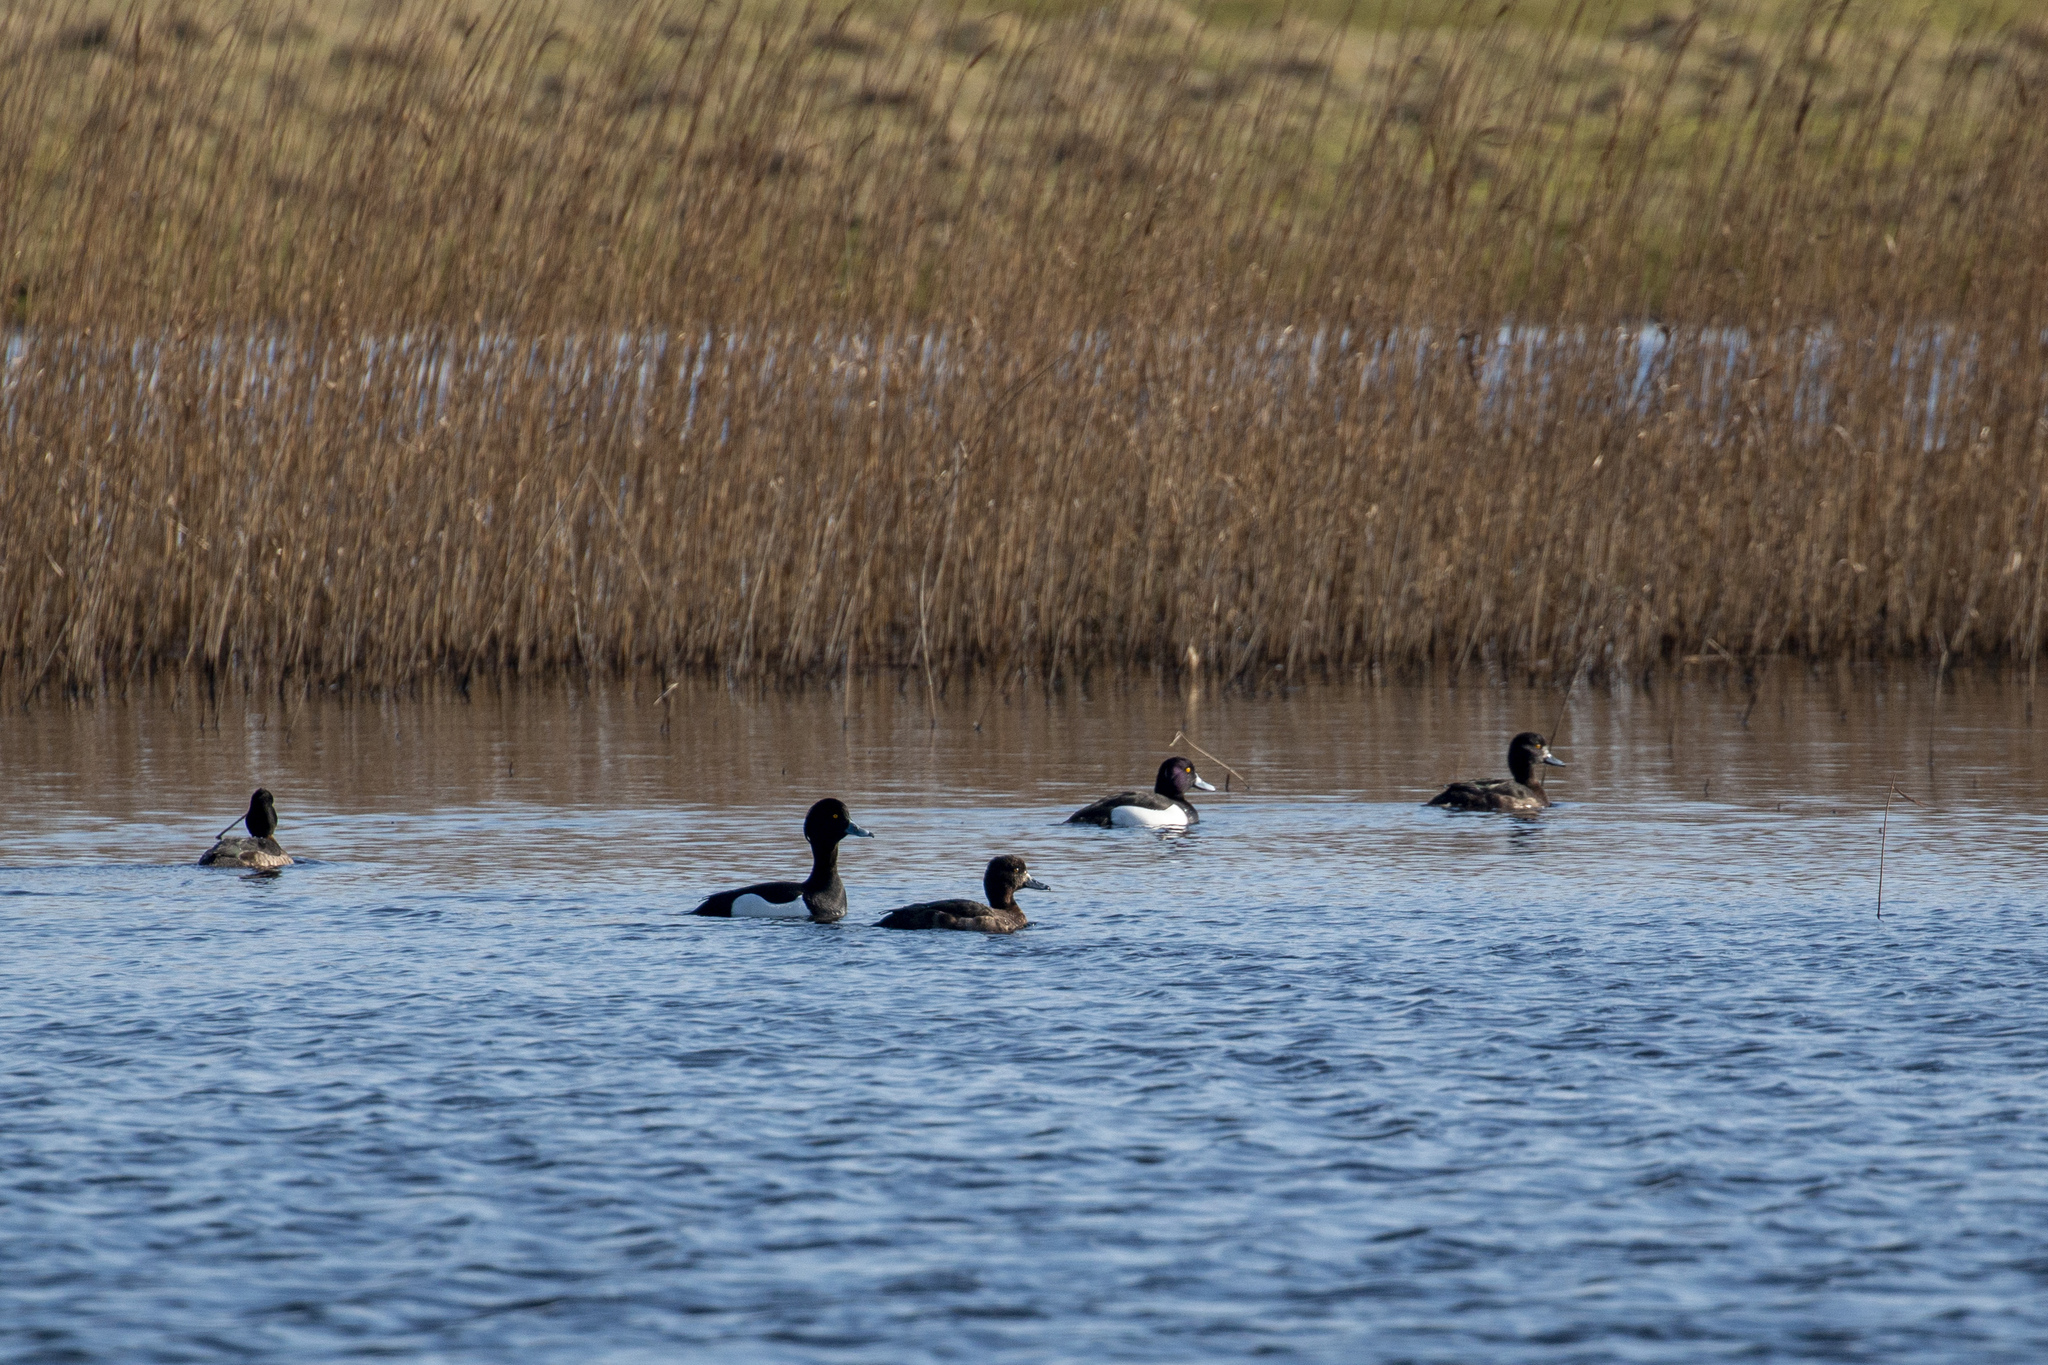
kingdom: Animalia
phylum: Chordata
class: Aves
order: Anseriformes
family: Anatidae
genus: Aythya
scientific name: Aythya fuligula
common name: Tufted duck
